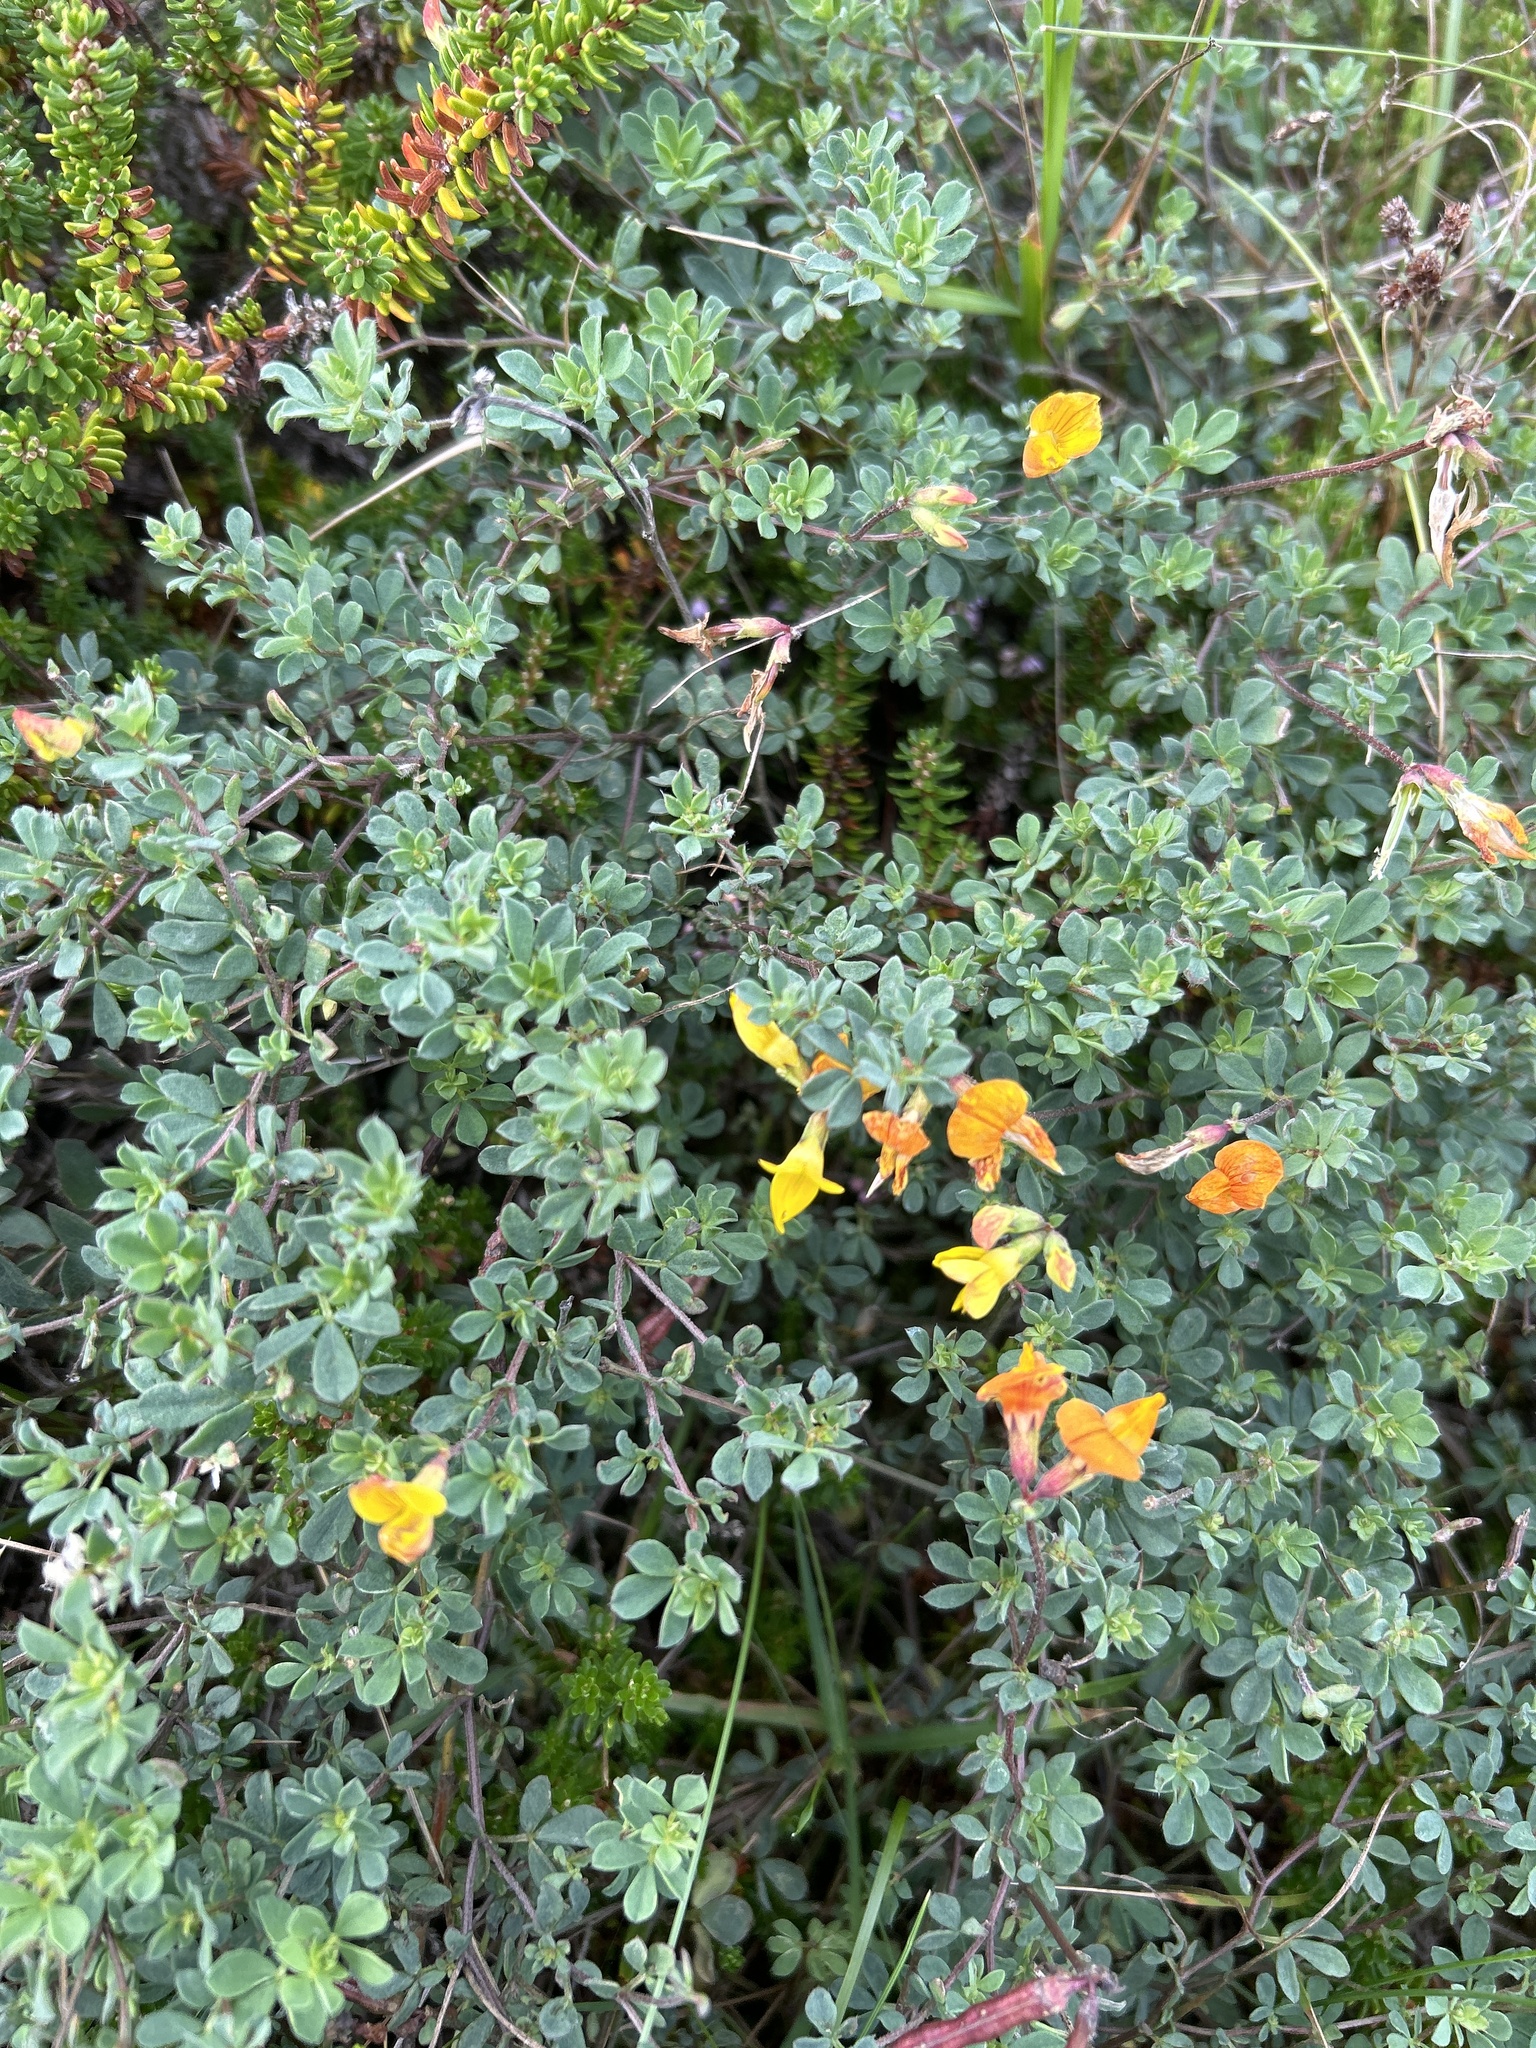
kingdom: Plantae
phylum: Tracheophyta
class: Magnoliopsida
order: Fabales
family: Fabaceae
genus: Lotus
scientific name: Lotus corniculatus
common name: Common bird's-foot-trefoil
